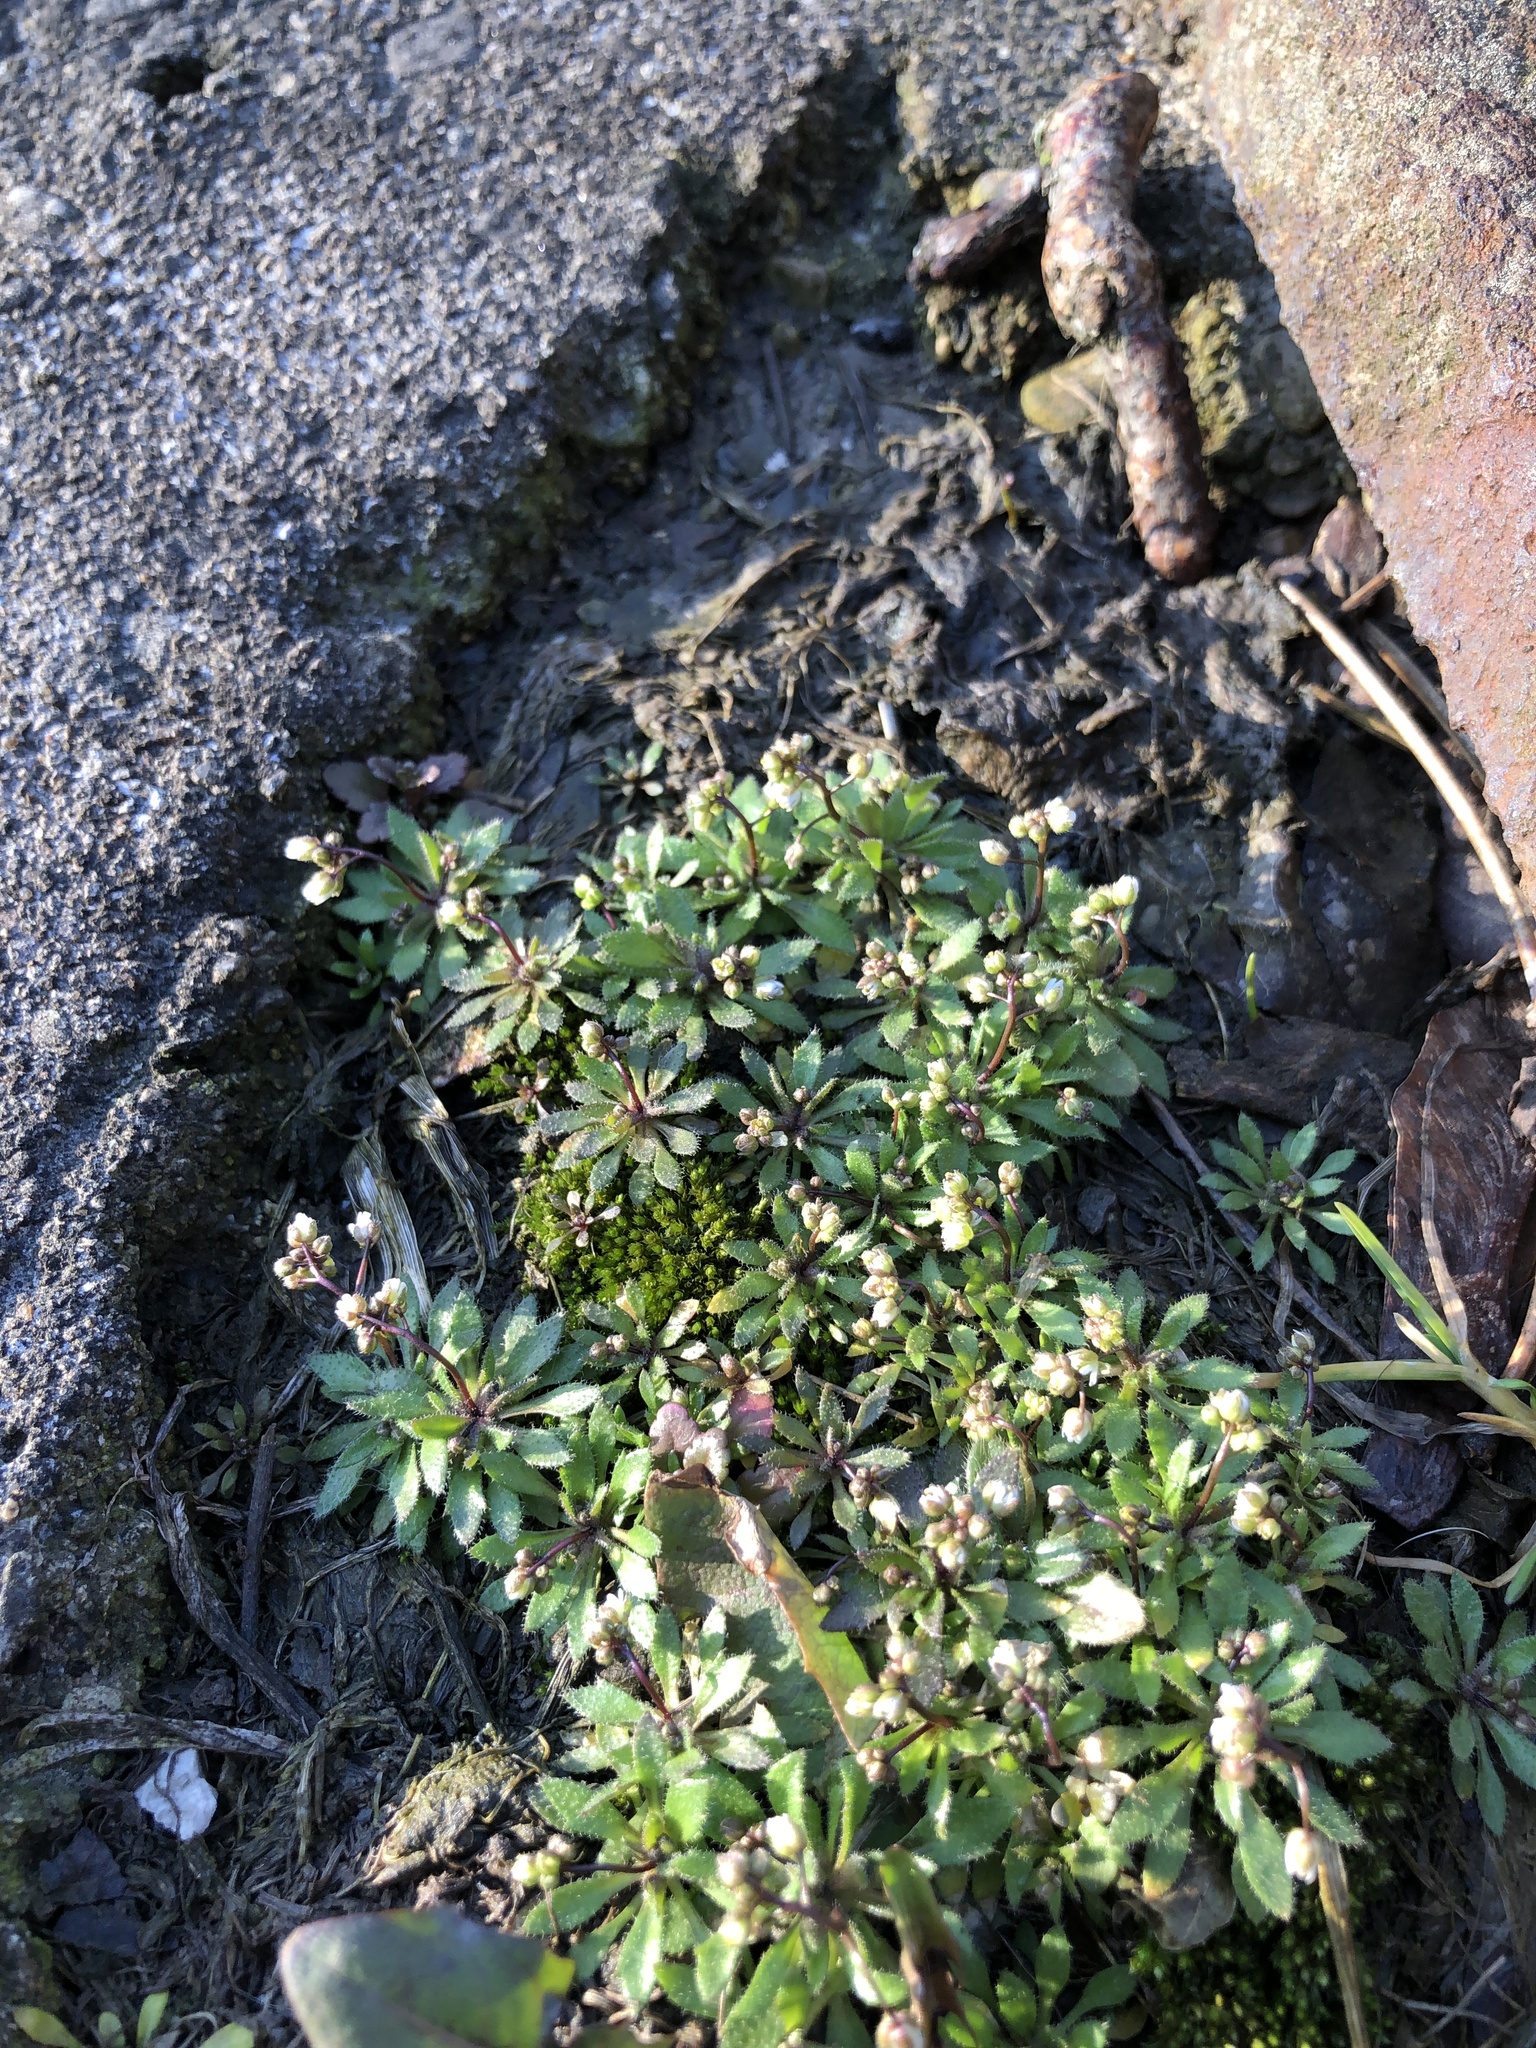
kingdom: Plantae
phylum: Tracheophyta
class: Magnoliopsida
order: Brassicales
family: Brassicaceae
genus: Draba
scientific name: Draba verna
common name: Spring draba
